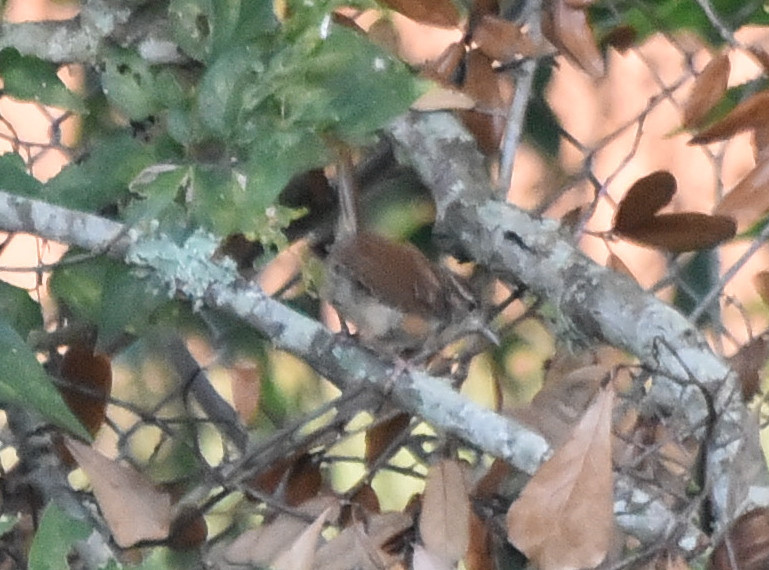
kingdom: Animalia
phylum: Chordata
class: Aves
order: Passeriformes
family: Troglodytidae
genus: Thryothorus
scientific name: Thryothorus ludovicianus
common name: Carolina wren
